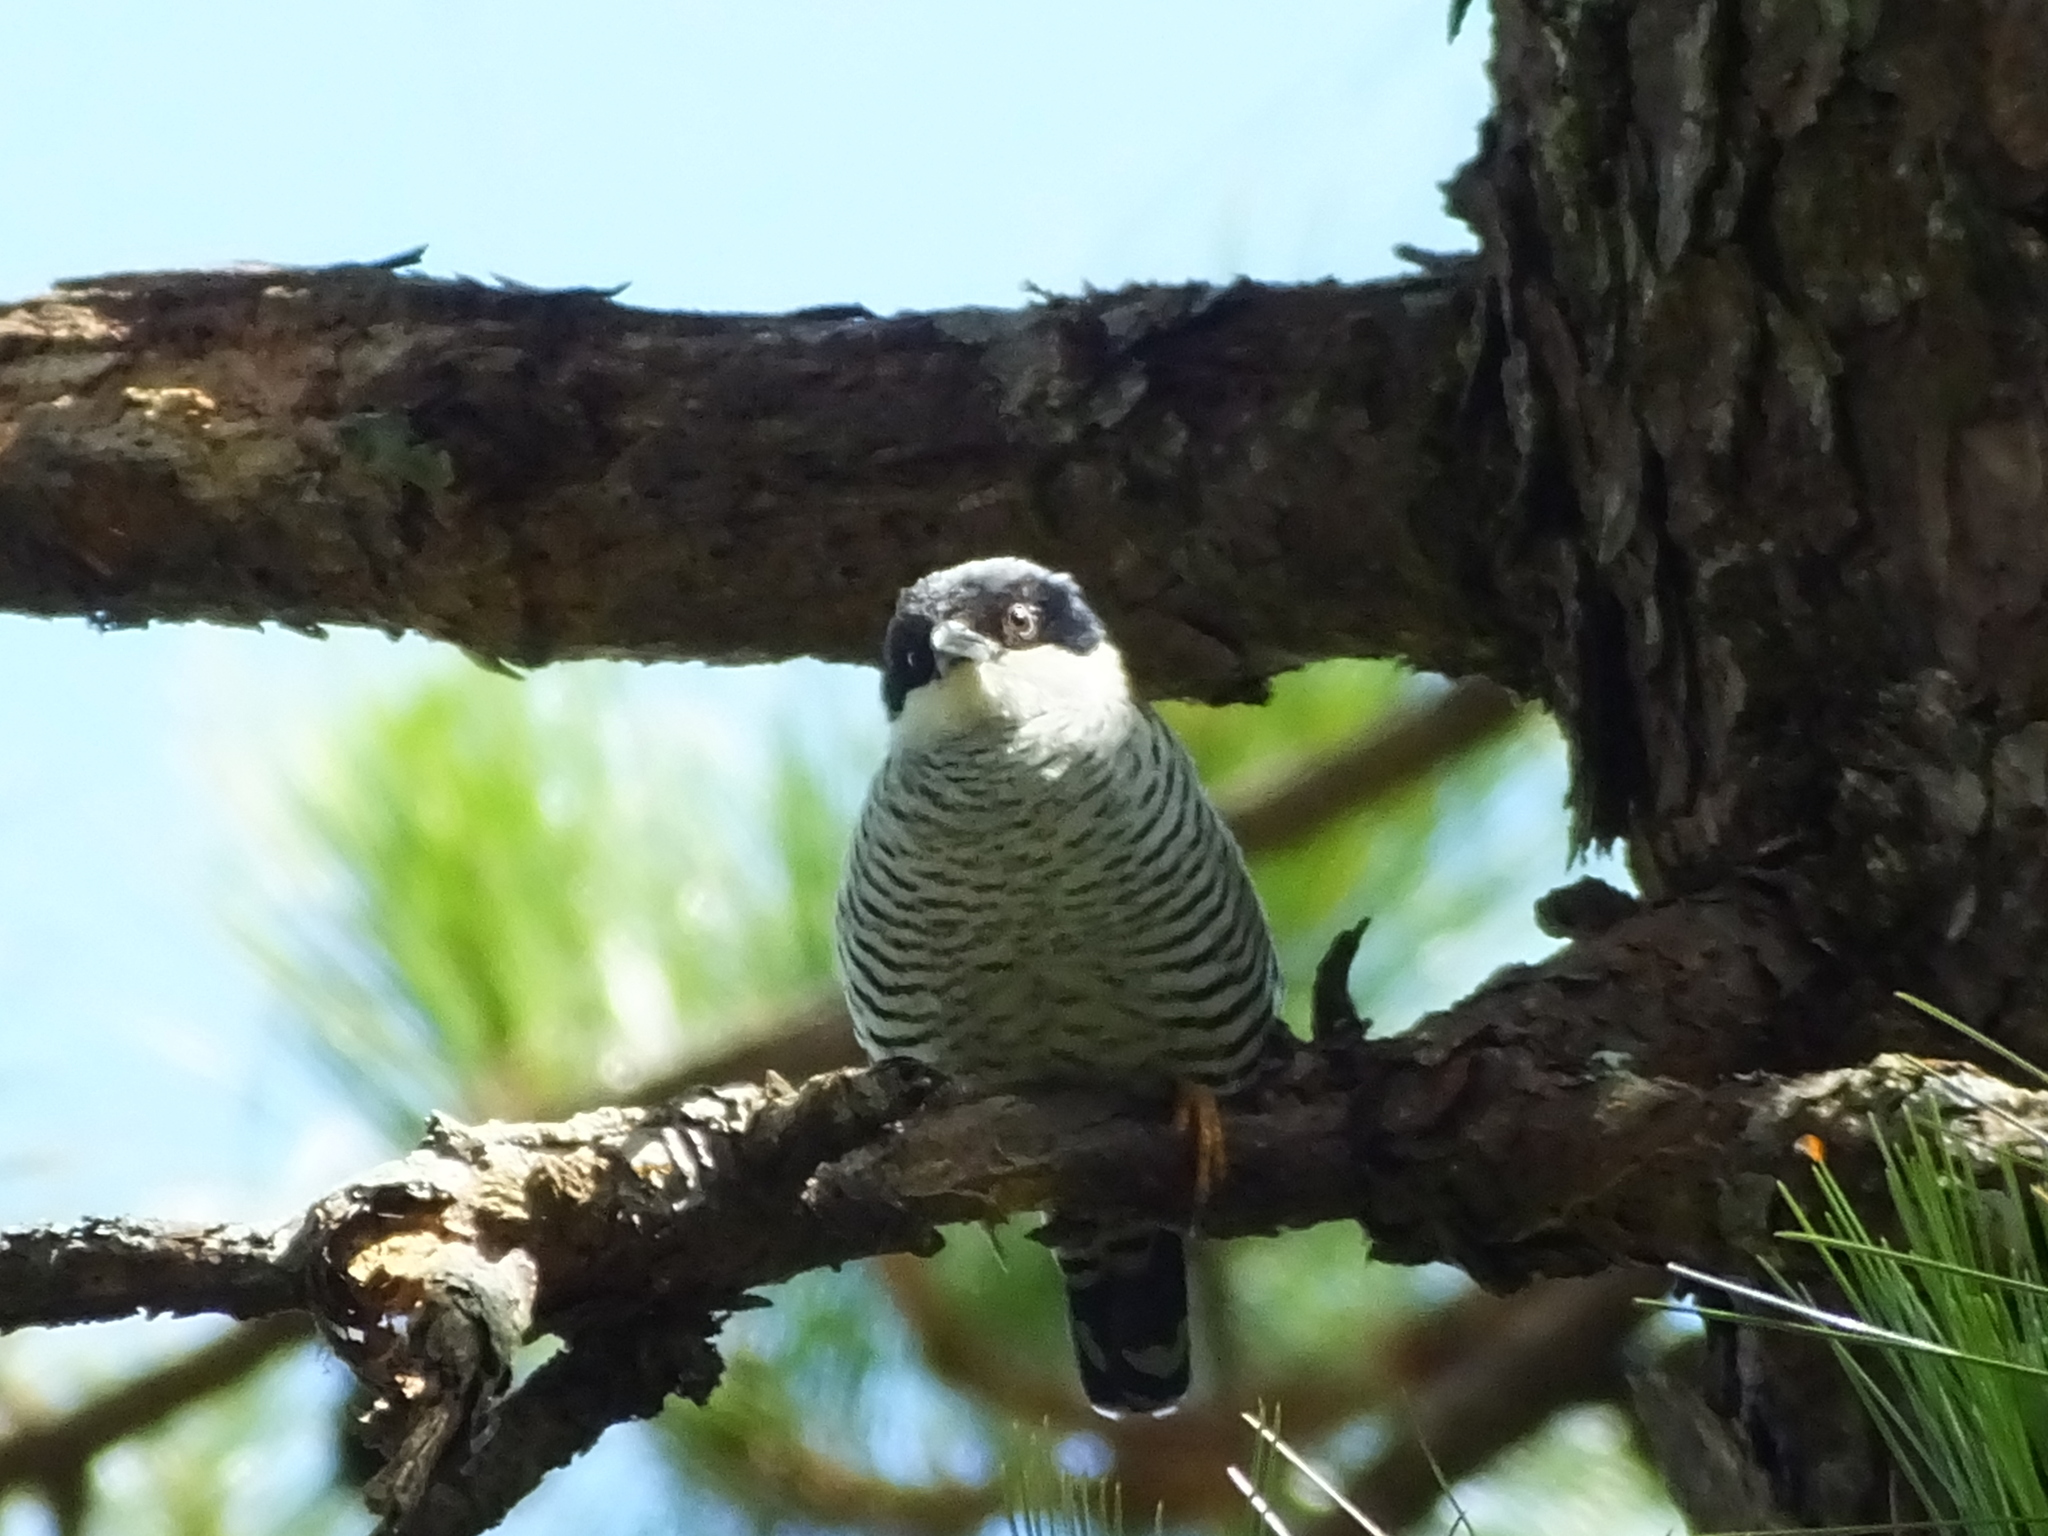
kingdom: Animalia
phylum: Chordata
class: Aves
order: Passeriformes
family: Leiothrichidae
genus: Cutia
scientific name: Cutia legalleni
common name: Vietnamese cutia
